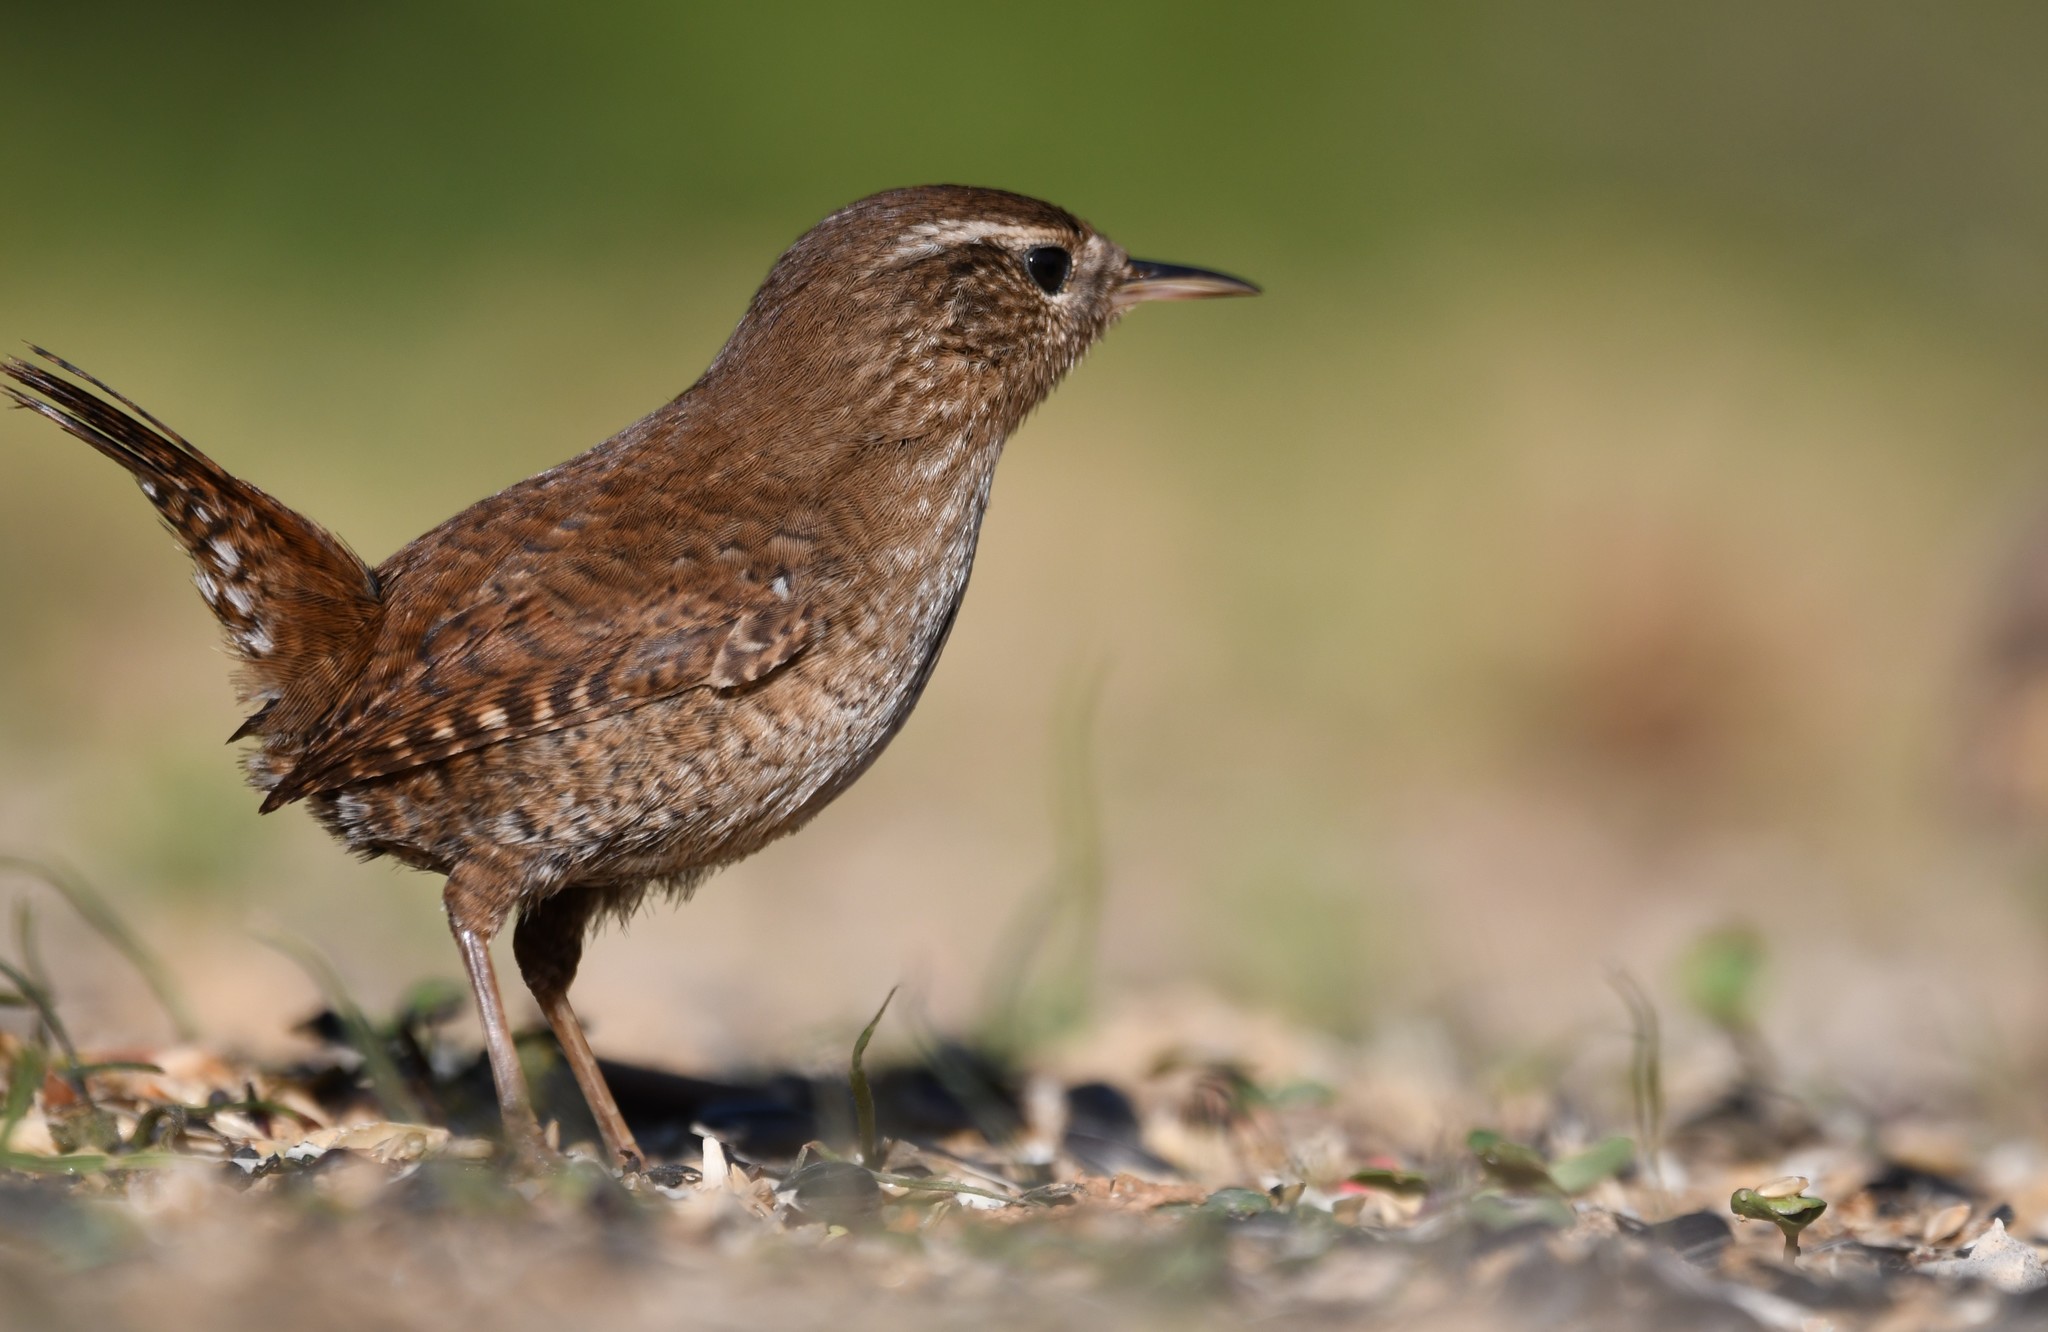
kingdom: Animalia
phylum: Chordata
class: Aves
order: Passeriformes
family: Troglodytidae
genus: Troglodytes
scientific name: Troglodytes troglodytes
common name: Eurasian wren
